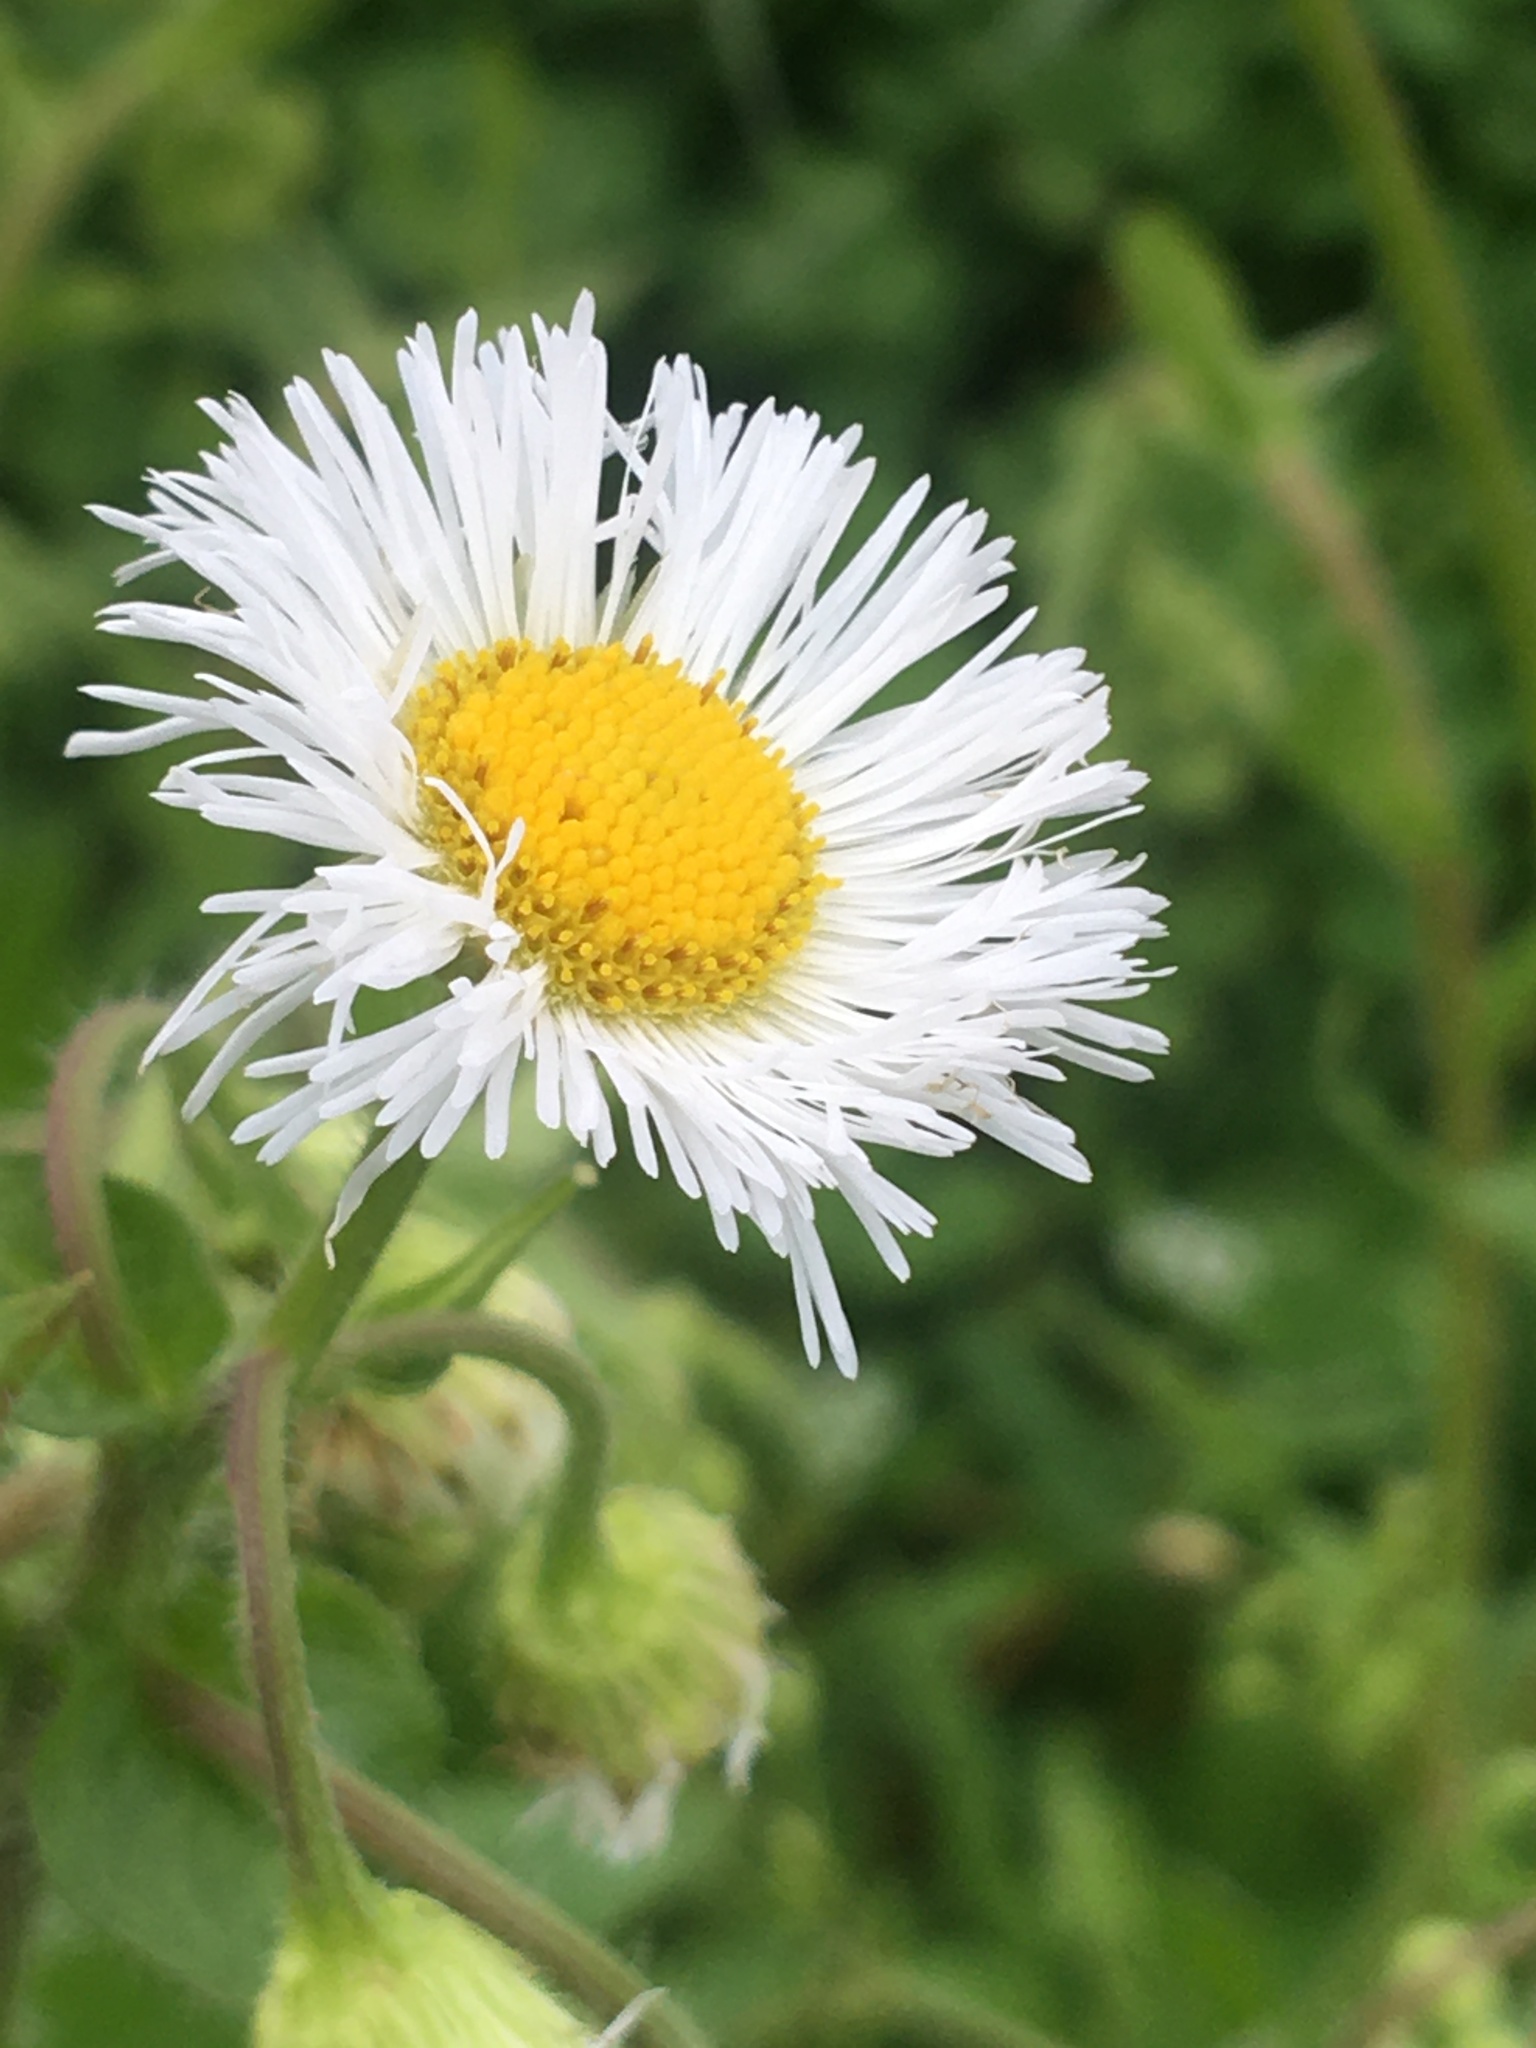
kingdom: Plantae
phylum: Tracheophyta
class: Magnoliopsida
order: Asterales
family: Asteraceae
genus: Erigeron
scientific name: Erigeron philadelphicus
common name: Robin's-plantain
